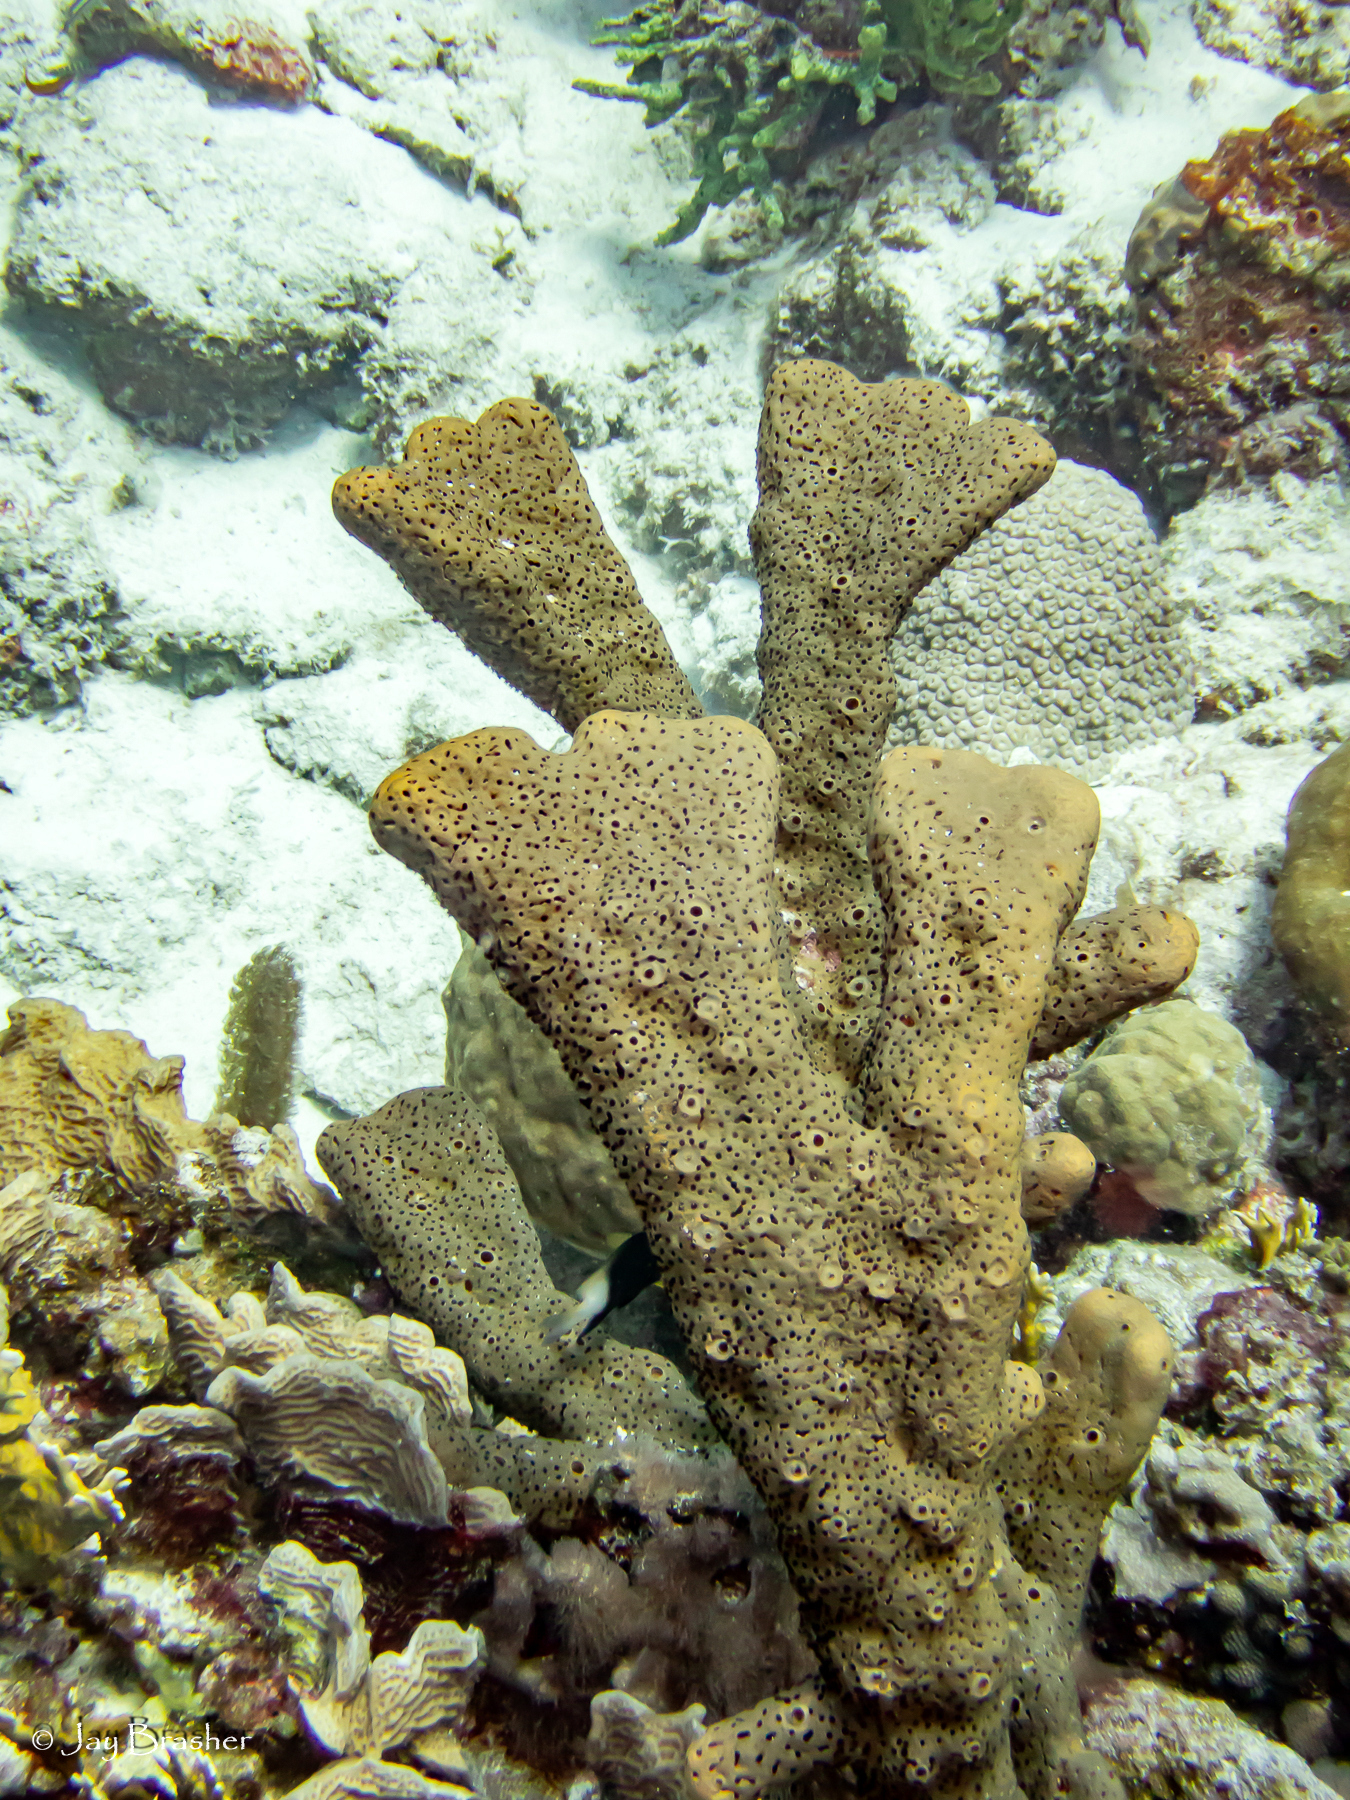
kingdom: Animalia
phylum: Porifera
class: Demospongiae
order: Agelasida
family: Agelasidae
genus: Agelas
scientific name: Agelas conifera
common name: Brown tube sponge
